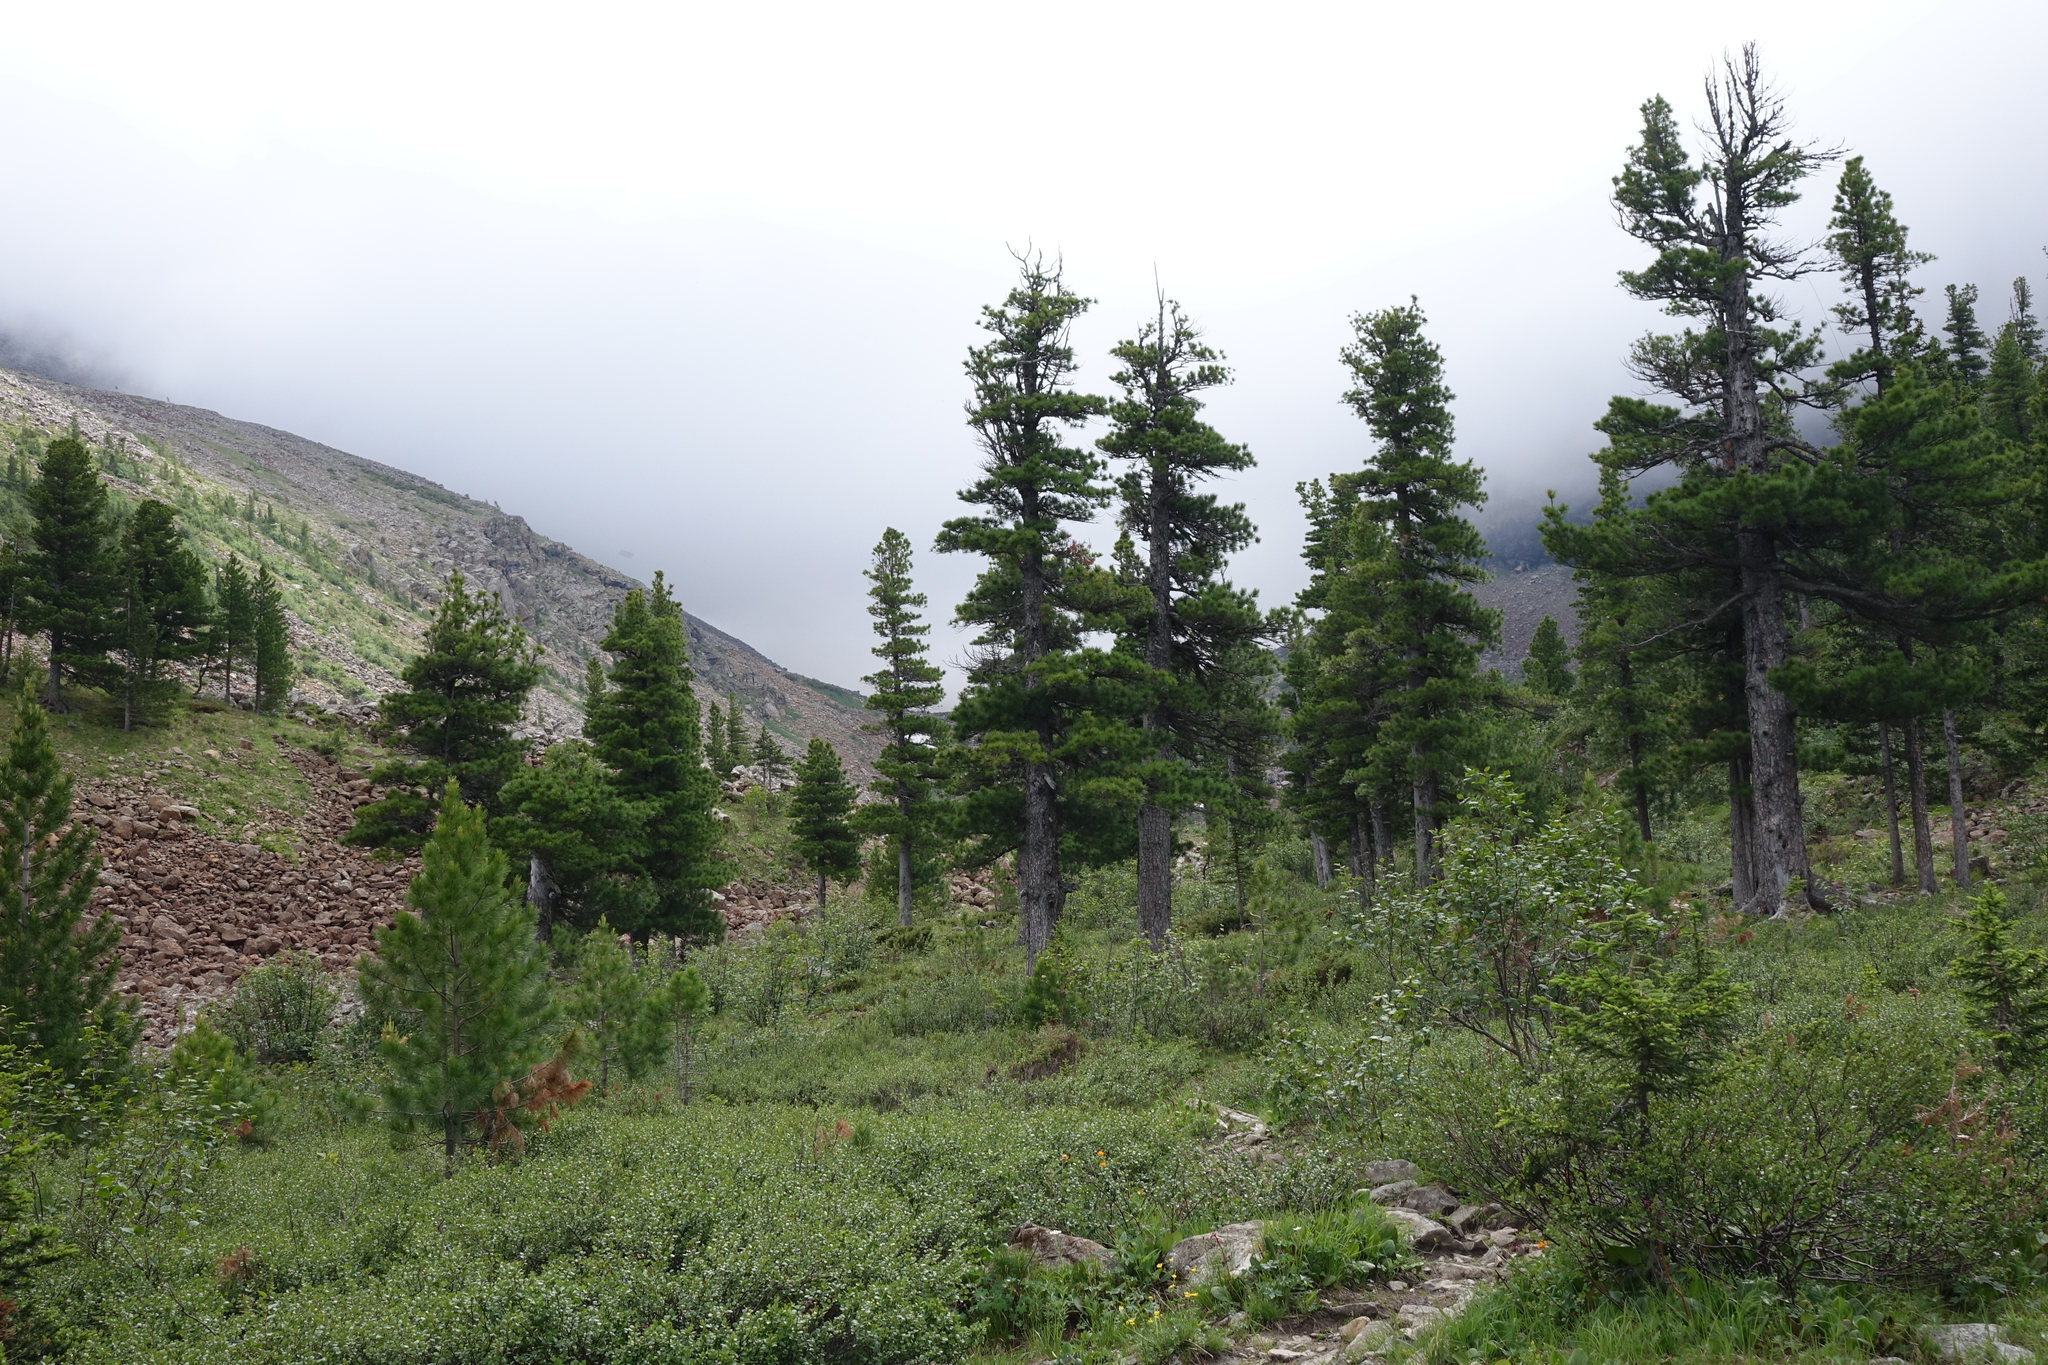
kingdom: Plantae
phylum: Tracheophyta
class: Pinopsida
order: Pinales
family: Pinaceae
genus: Pinus
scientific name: Pinus sibirica
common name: Siberian pine
